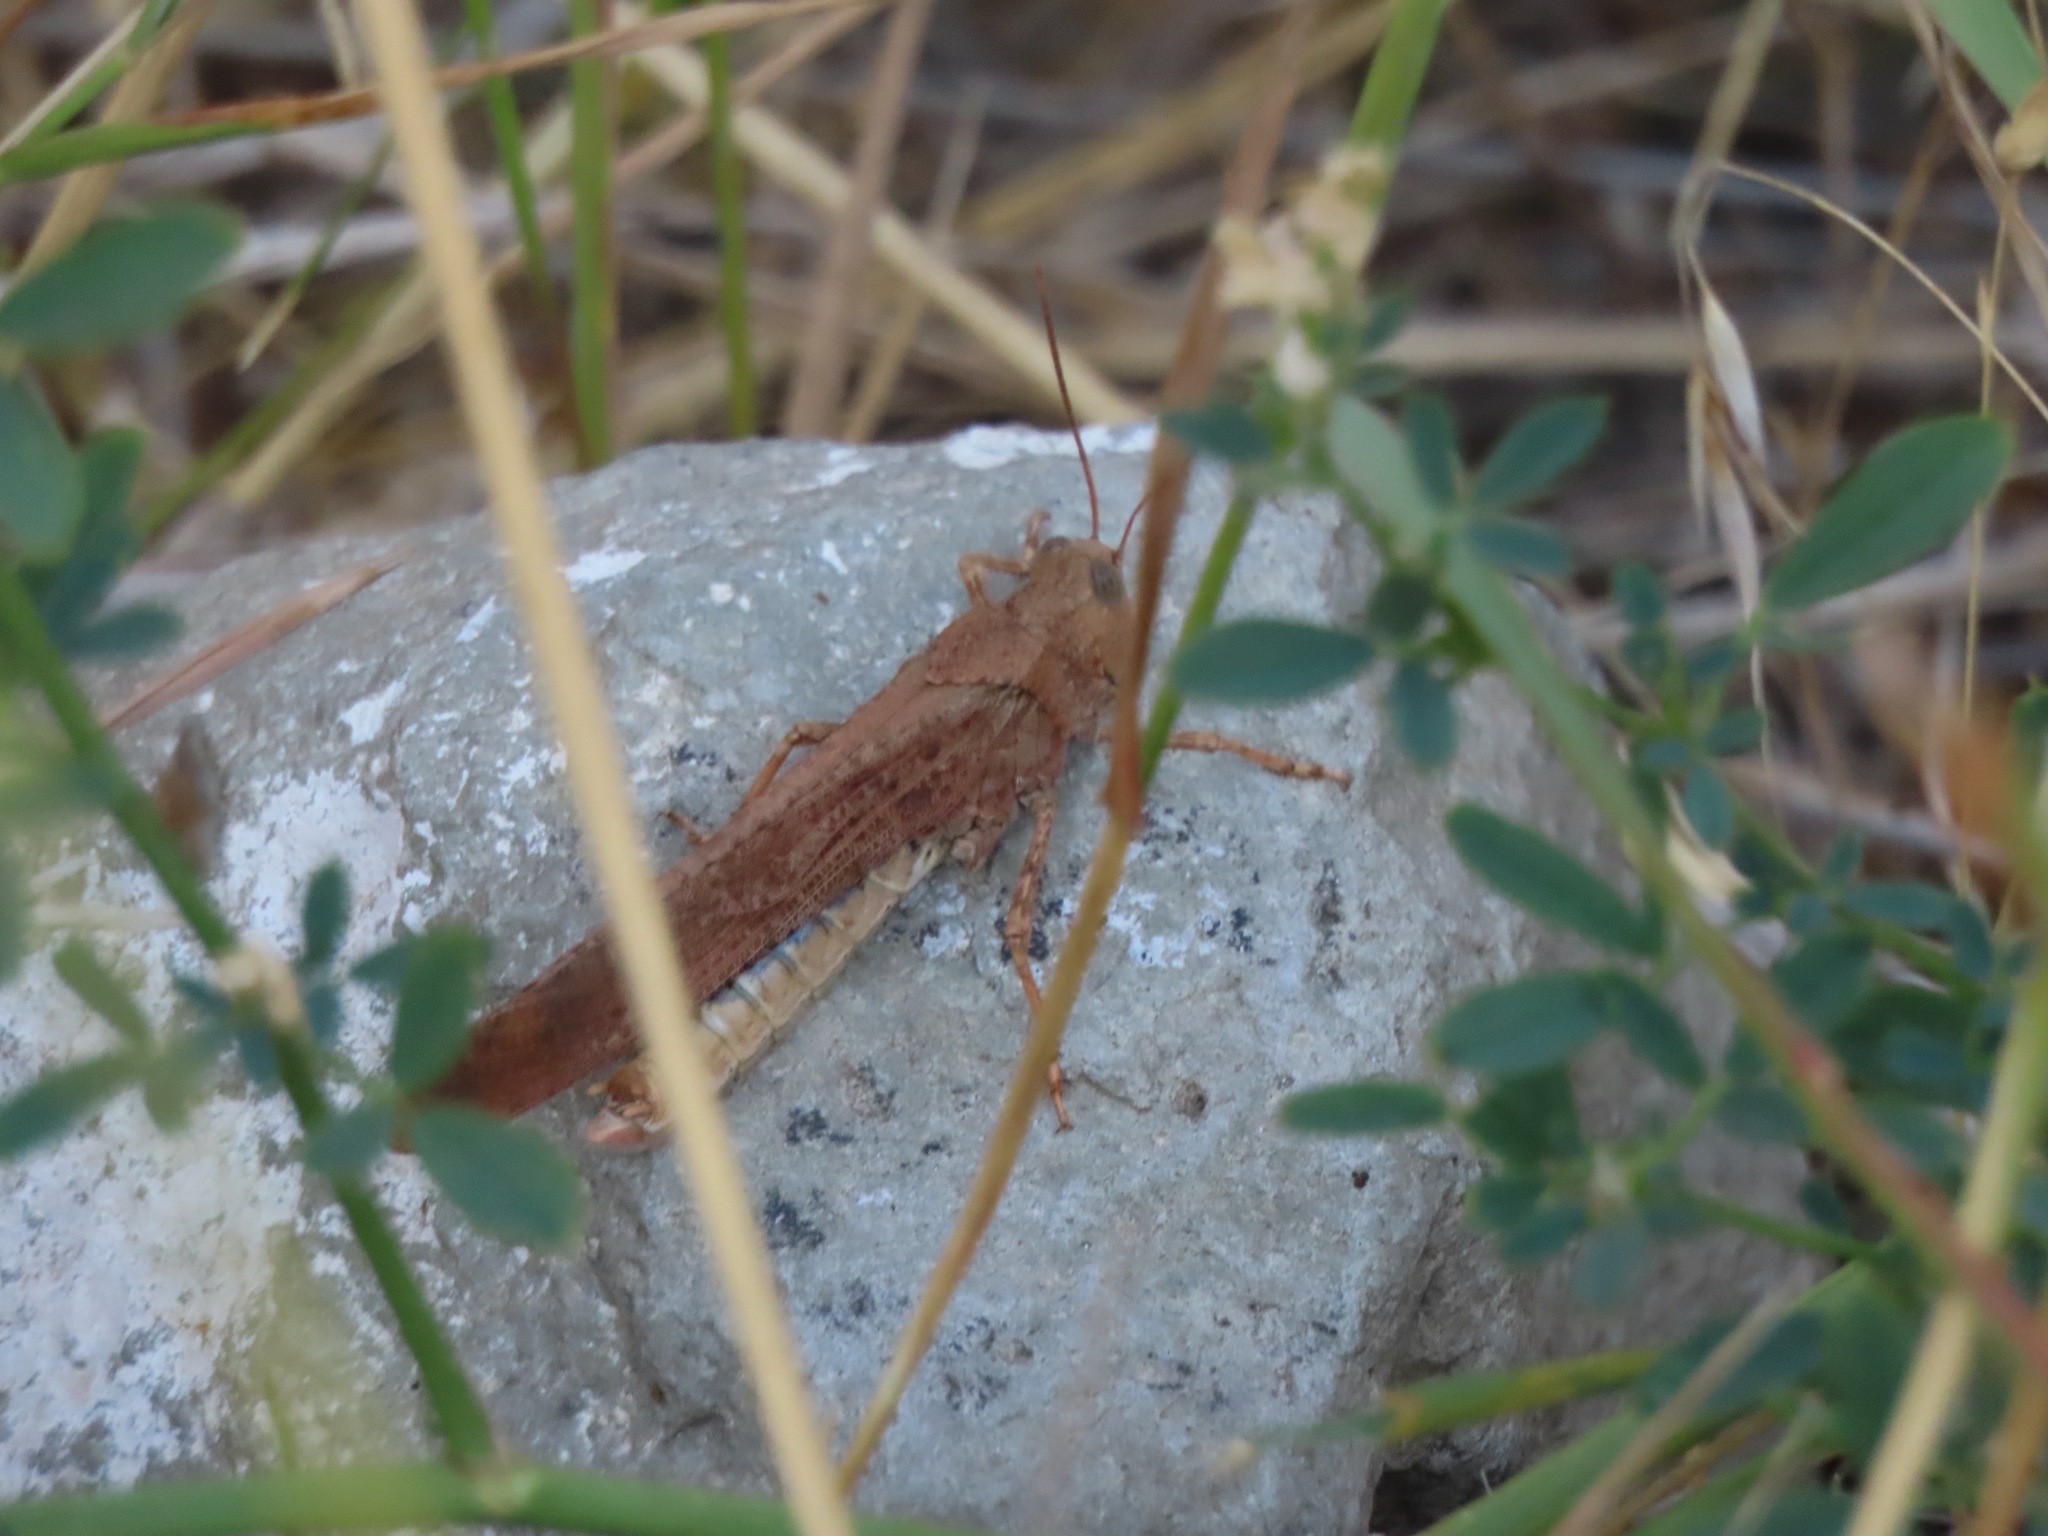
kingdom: Animalia
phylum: Arthropoda
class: Insecta
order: Orthoptera
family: Acrididae
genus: Dissosteira
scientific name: Dissosteira carolina
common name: Carolina grasshopper
